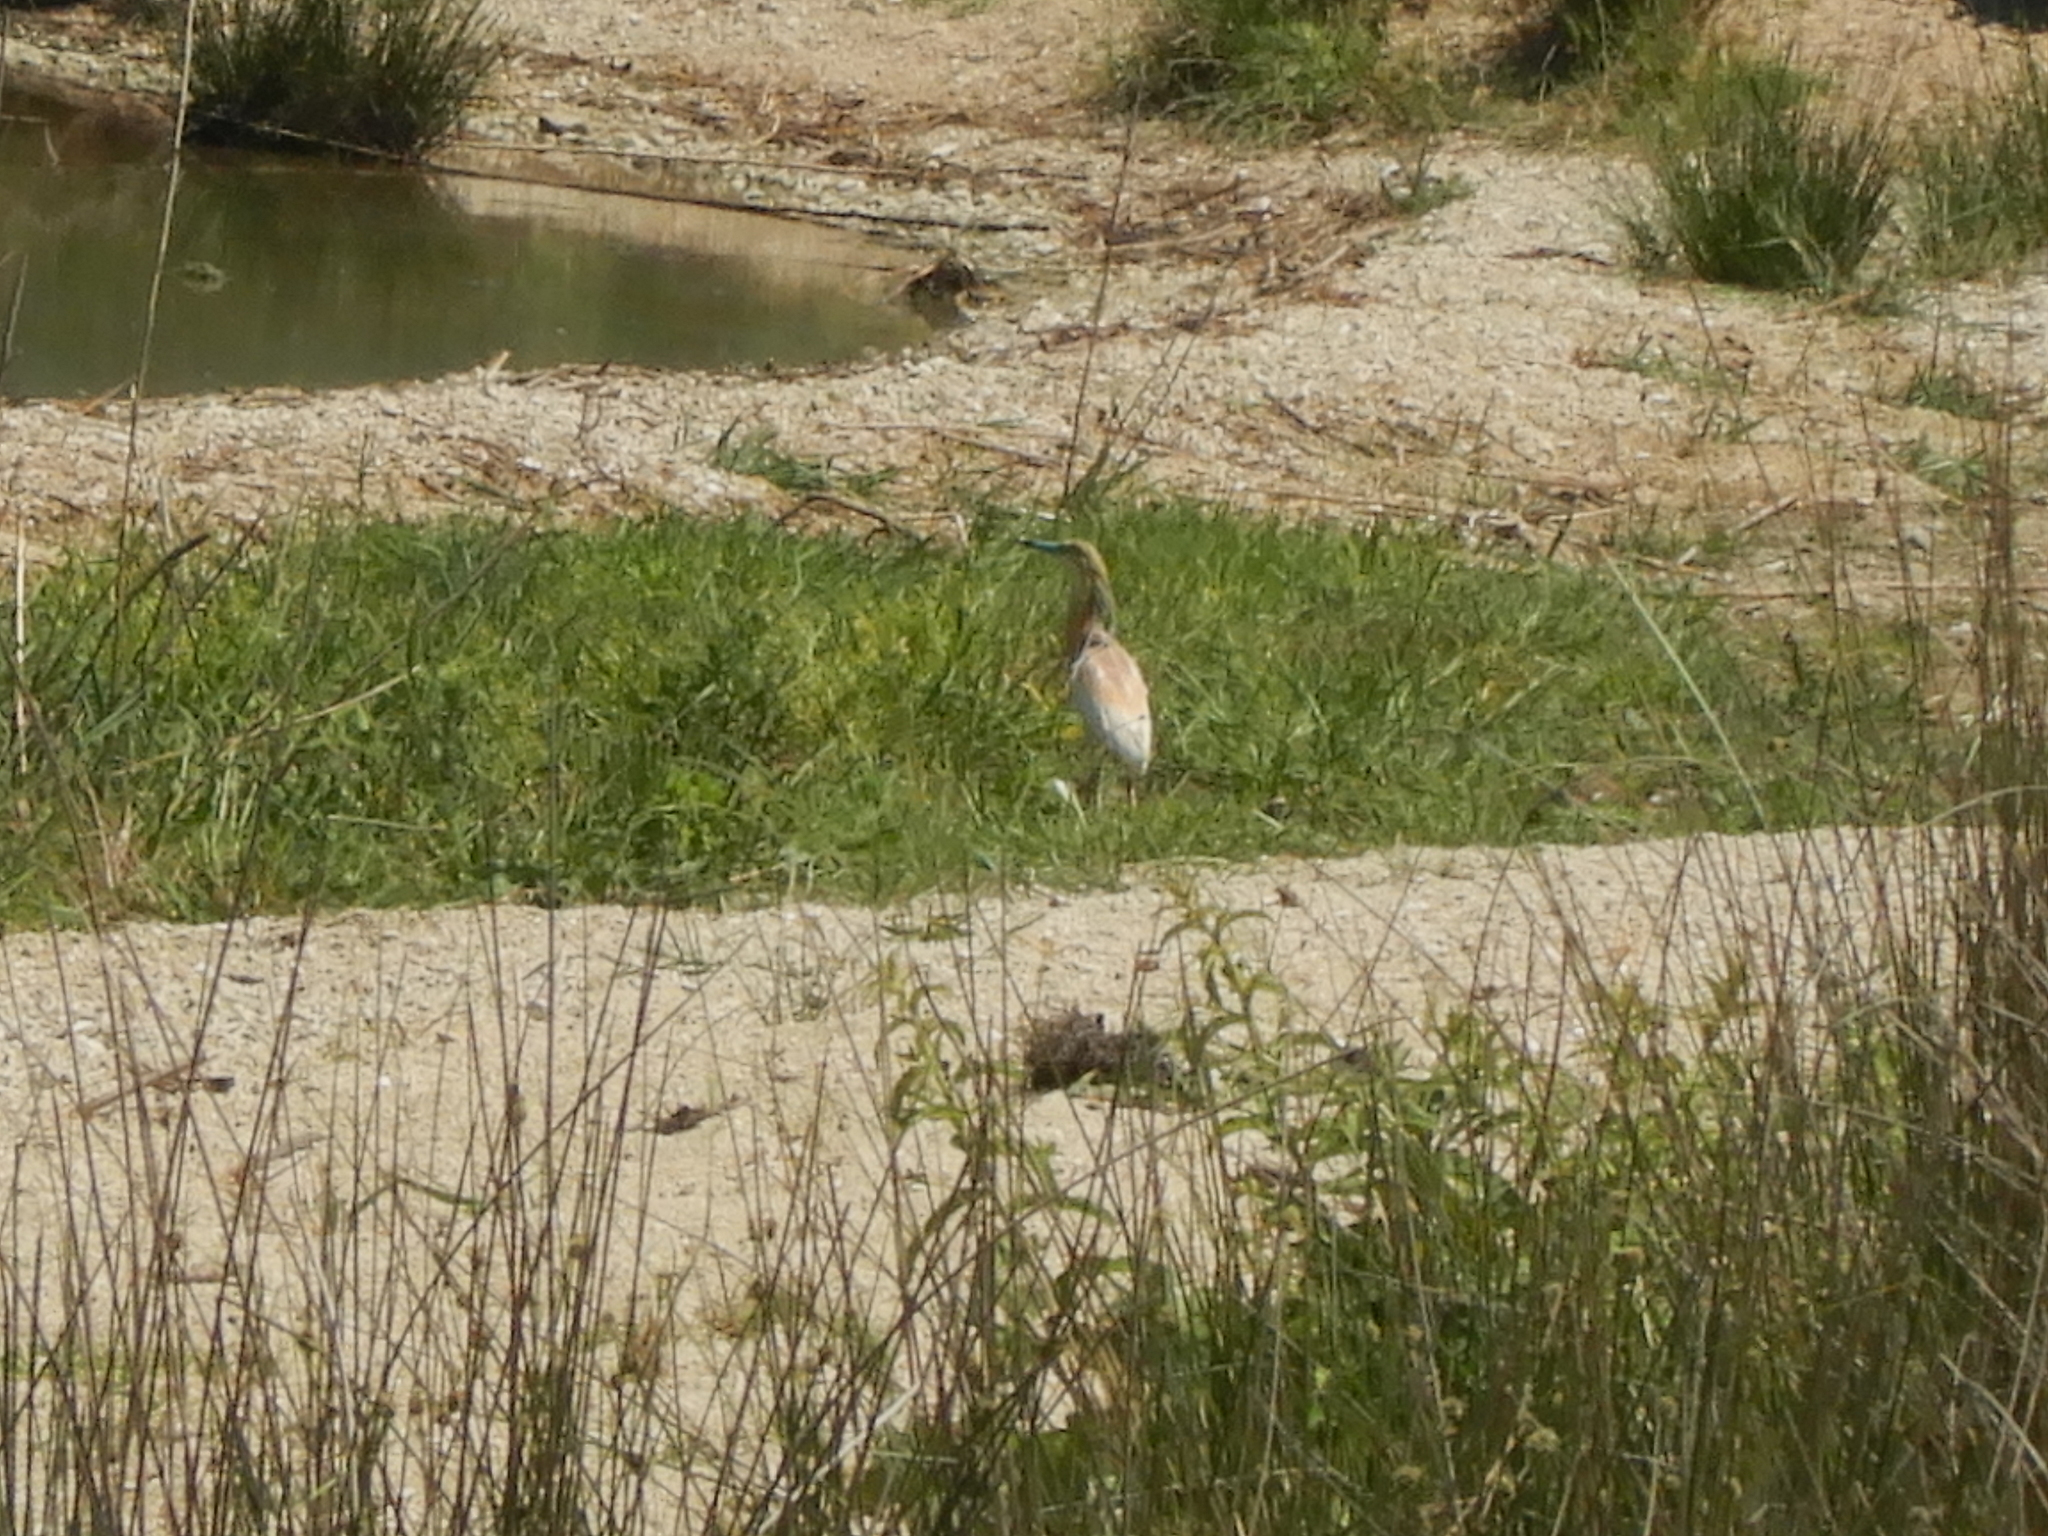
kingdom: Animalia
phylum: Chordata
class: Aves
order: Pelecaniformes
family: Ardeidae
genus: Ardeola
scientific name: Ardeola ralloides
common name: Squacco heron
